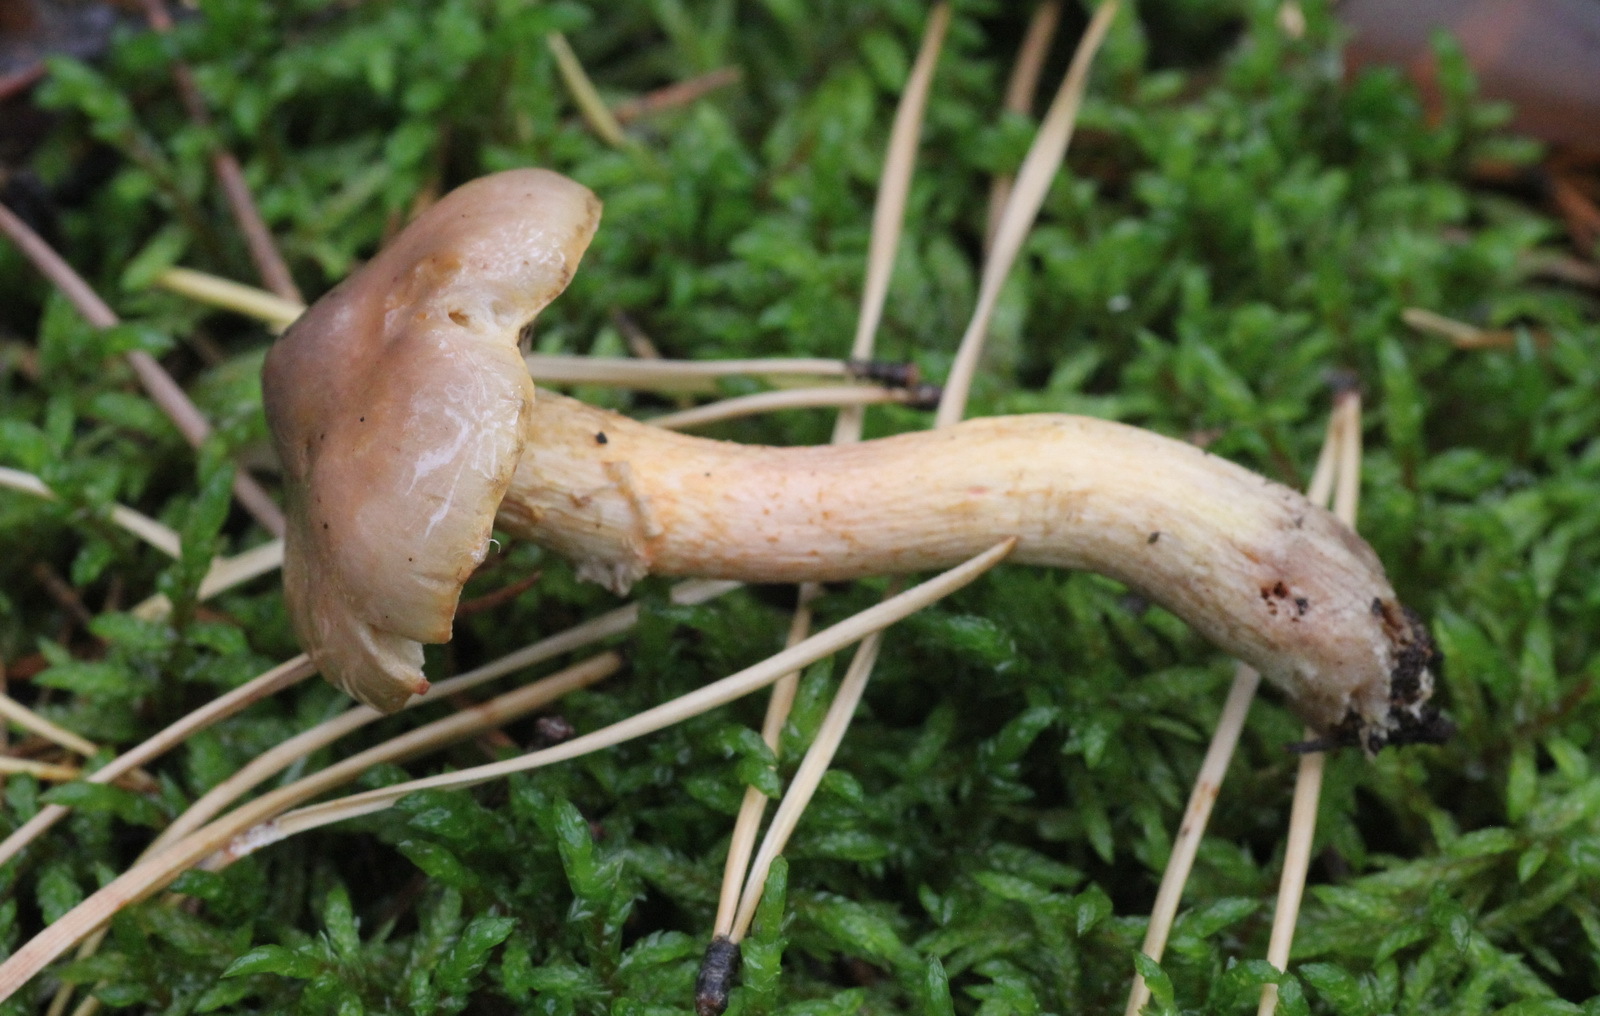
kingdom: Fungi
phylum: Basidiomycota
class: Agaricomycetes
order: Boletales
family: Gomphidiaceae
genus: Chroogomphus
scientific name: Chroogomphus rutilus
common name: Copper spike
